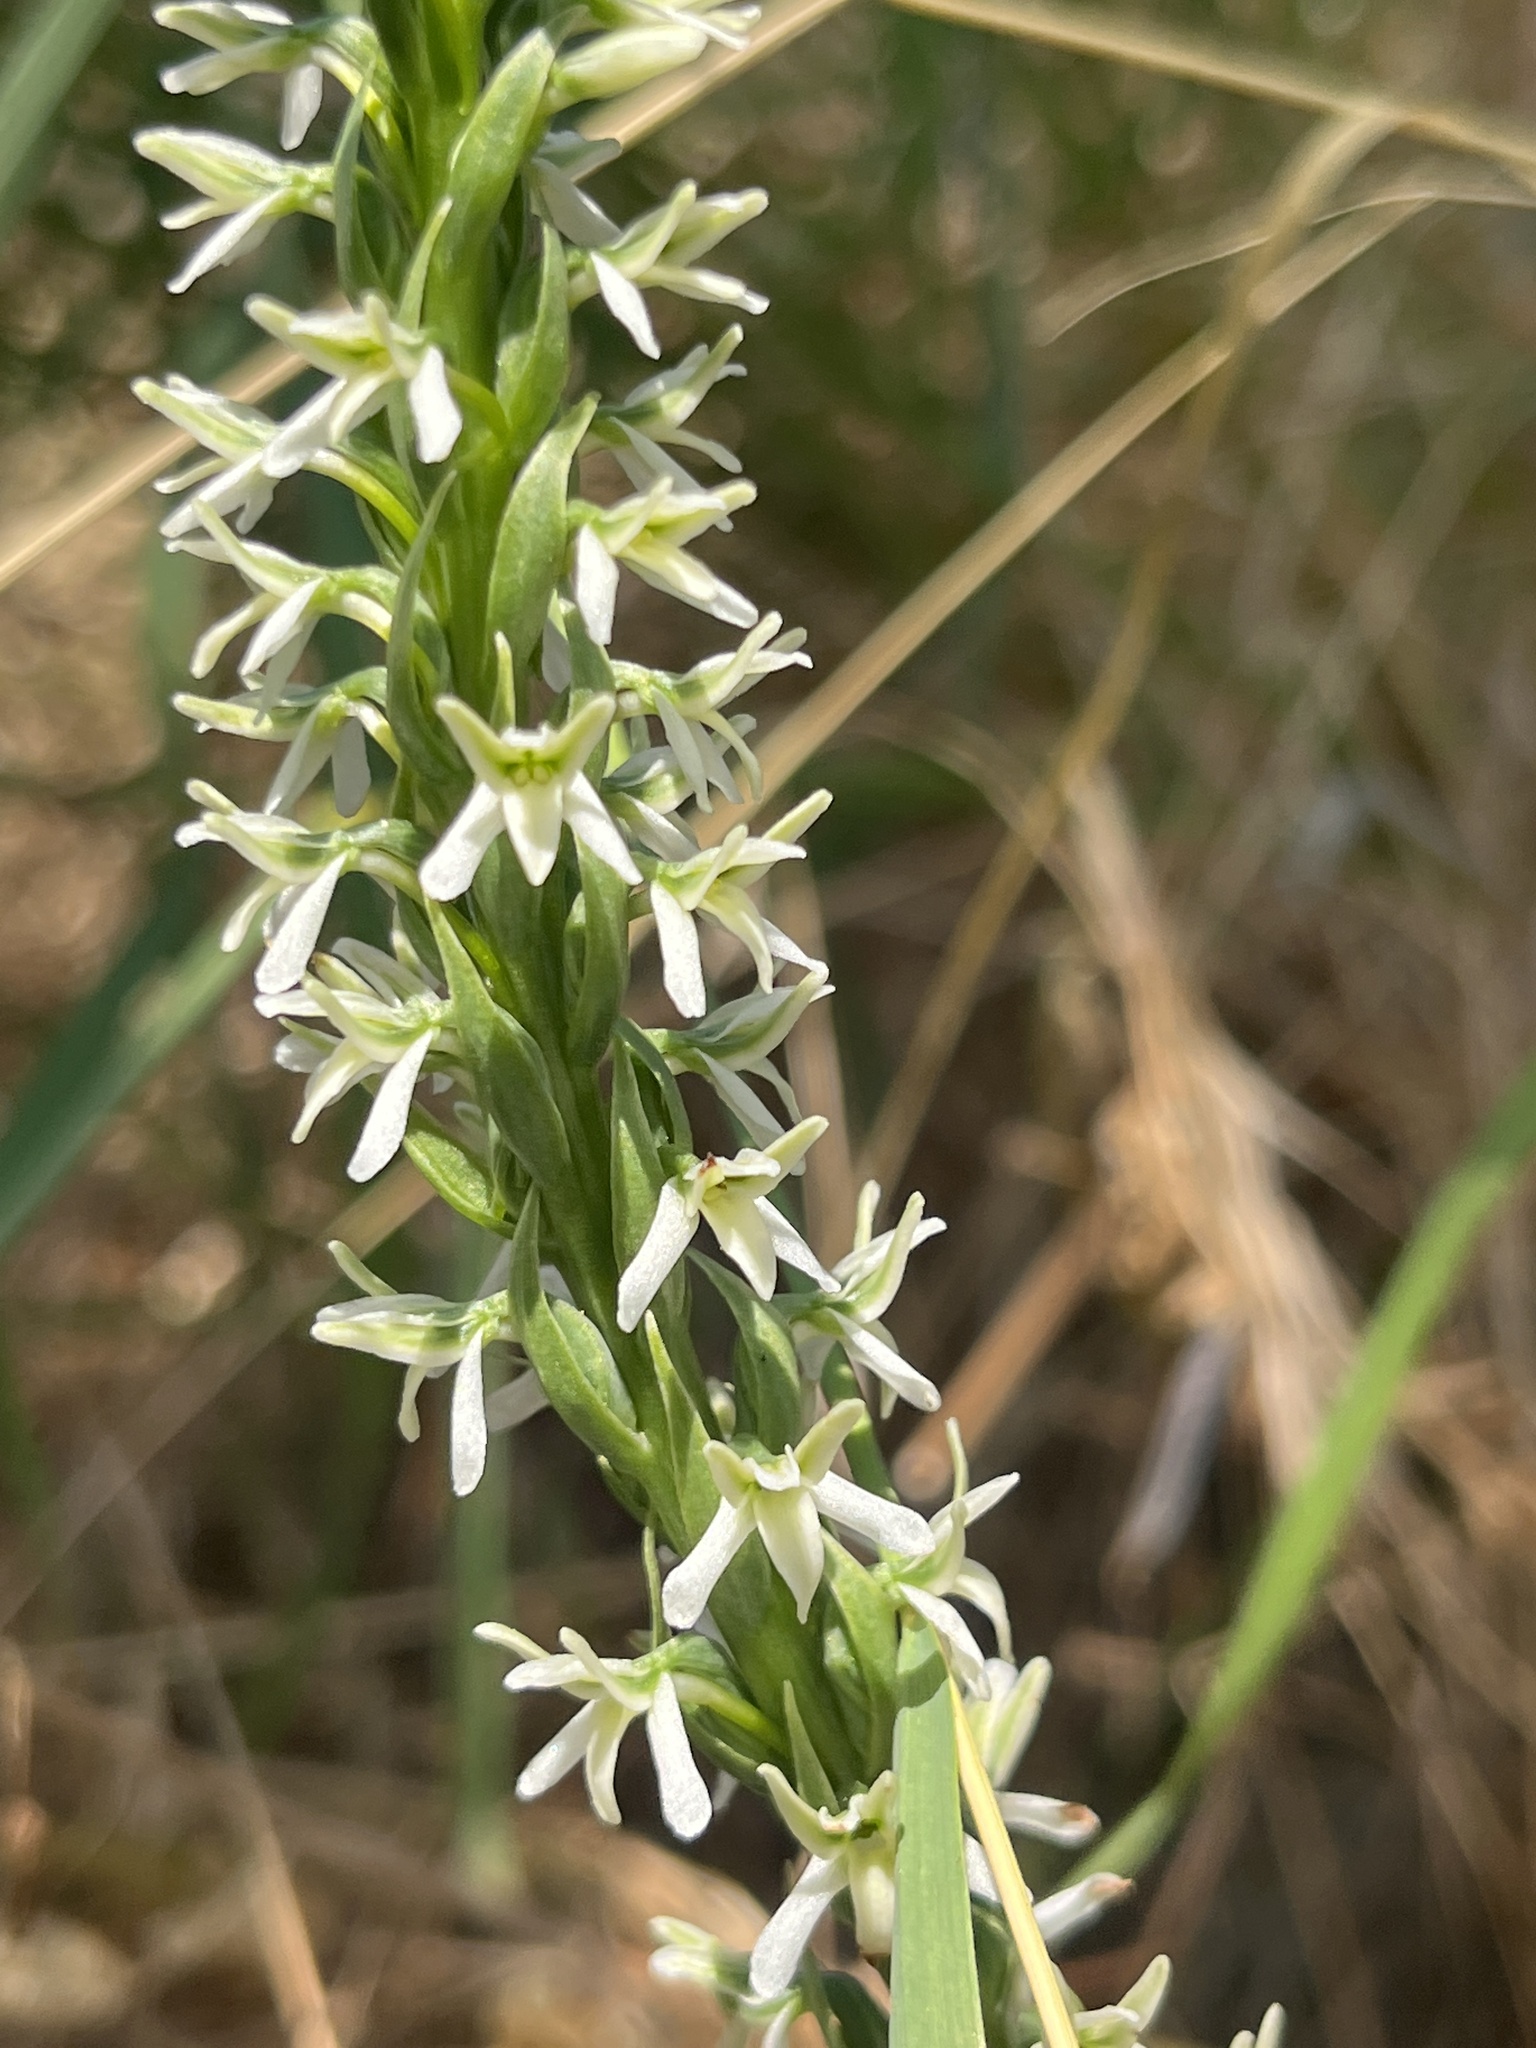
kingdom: Plantae
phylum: Tracheophyta
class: Liliopsida
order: Asparagales
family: Orchidaceae
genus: Platanthera
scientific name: Platanthera elegans
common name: Coast piperia
